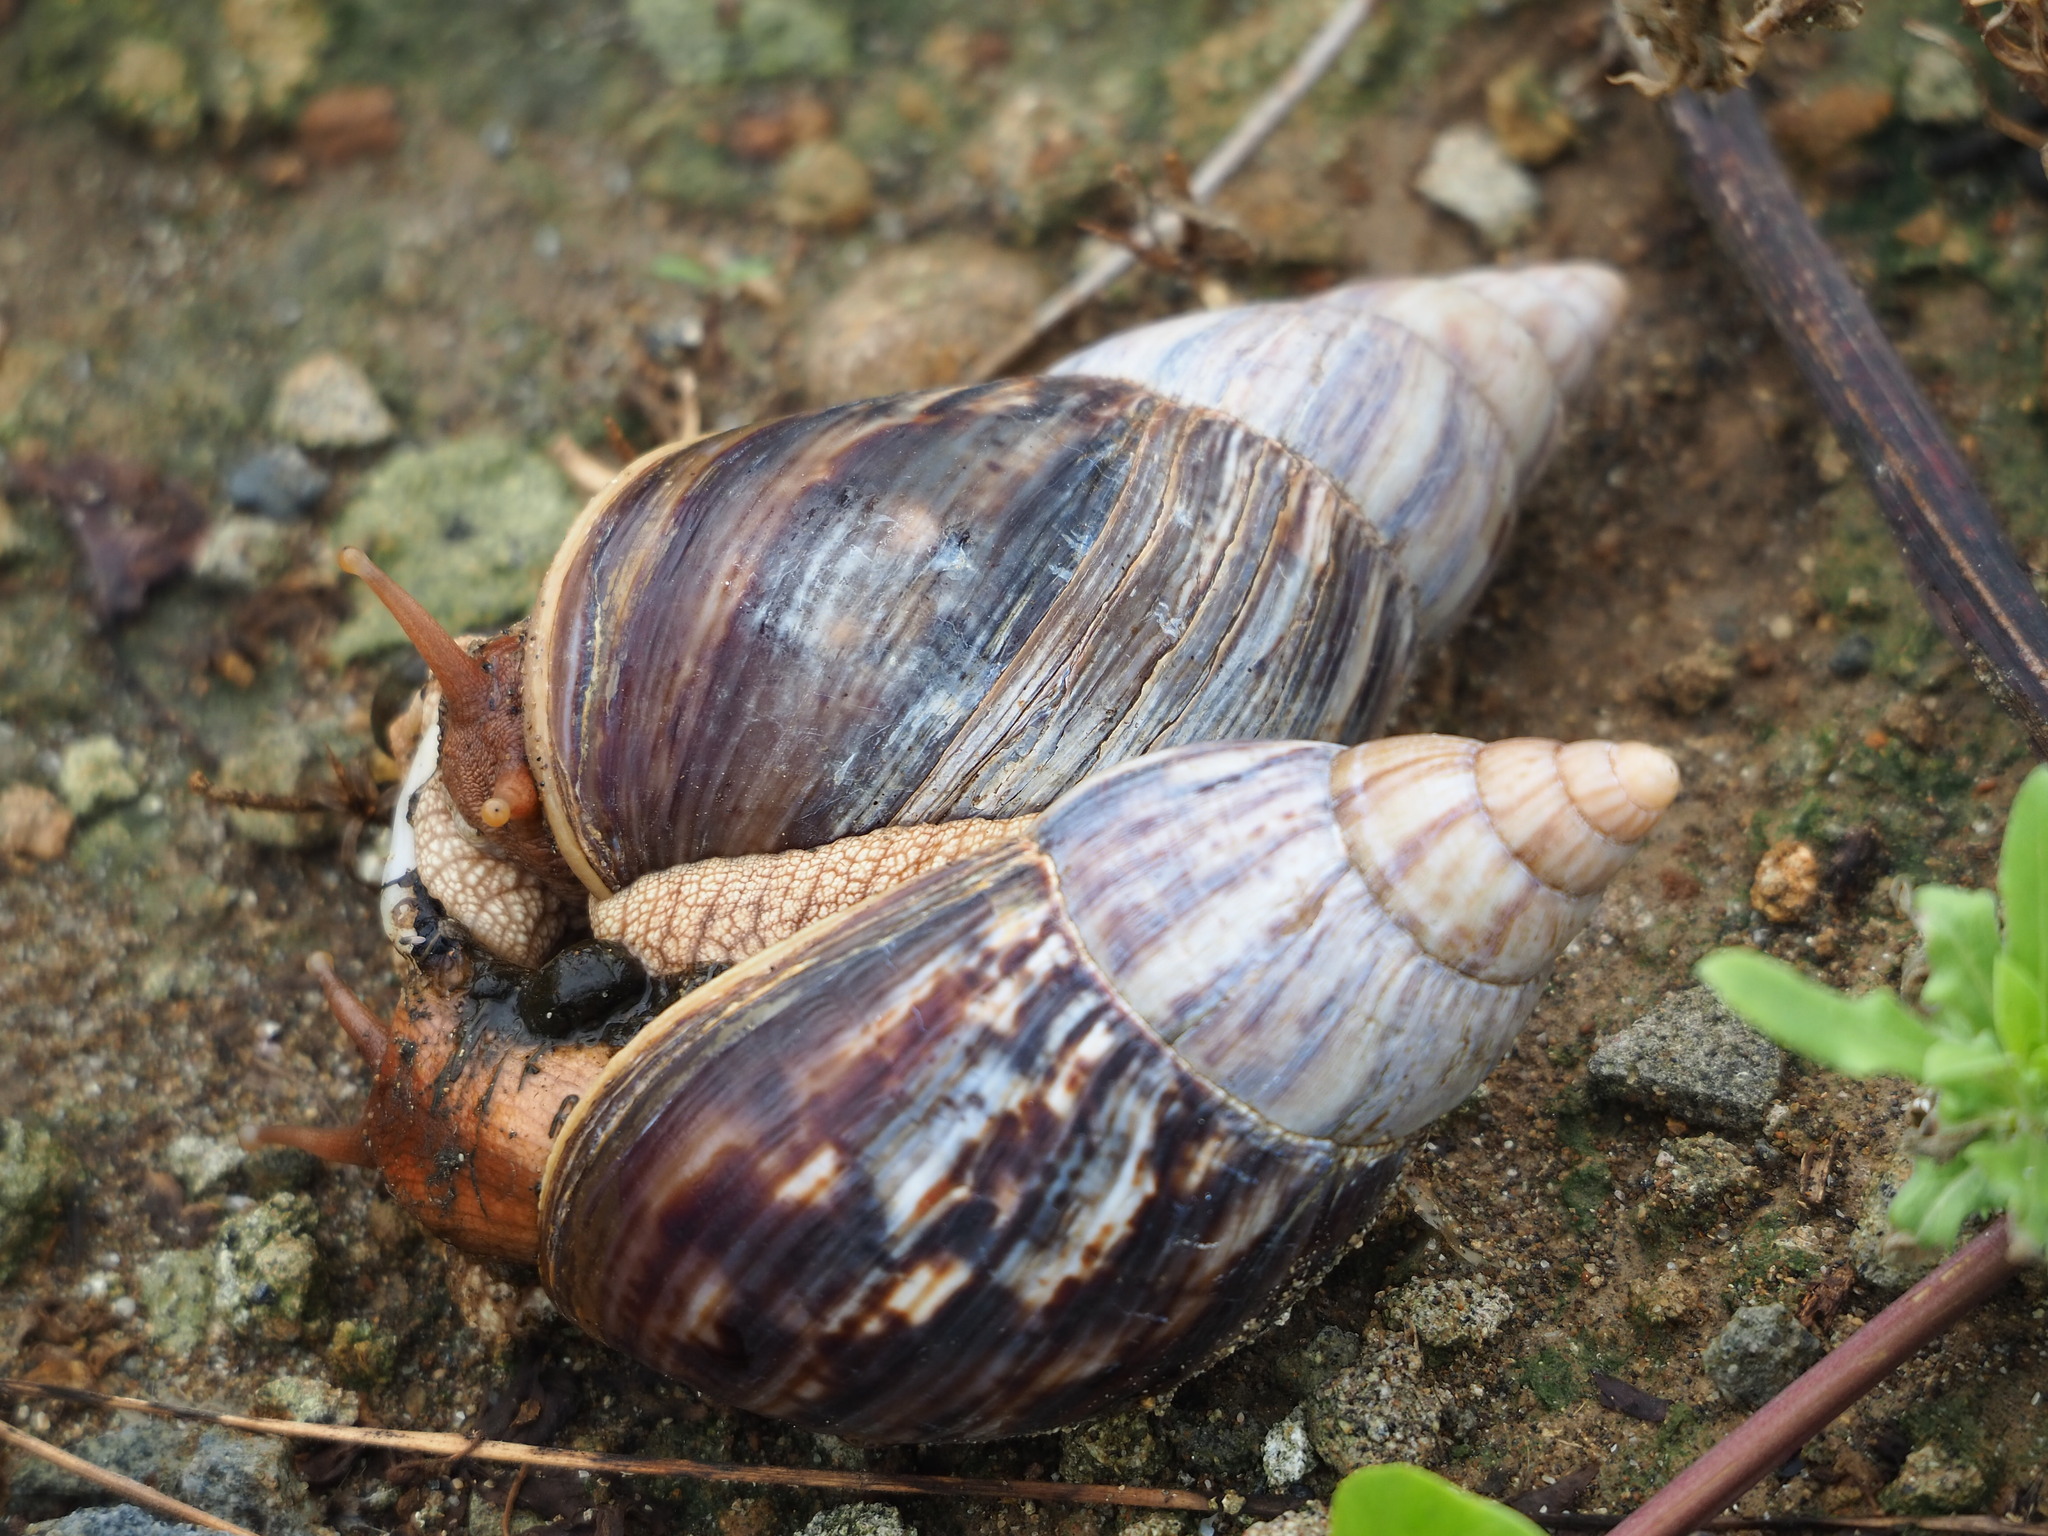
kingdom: Animalia
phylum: Mollusca
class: Gastropoda
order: Stylommatophora
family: Achatinidae
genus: Lissachatina
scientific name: Lissachatina immaculata
